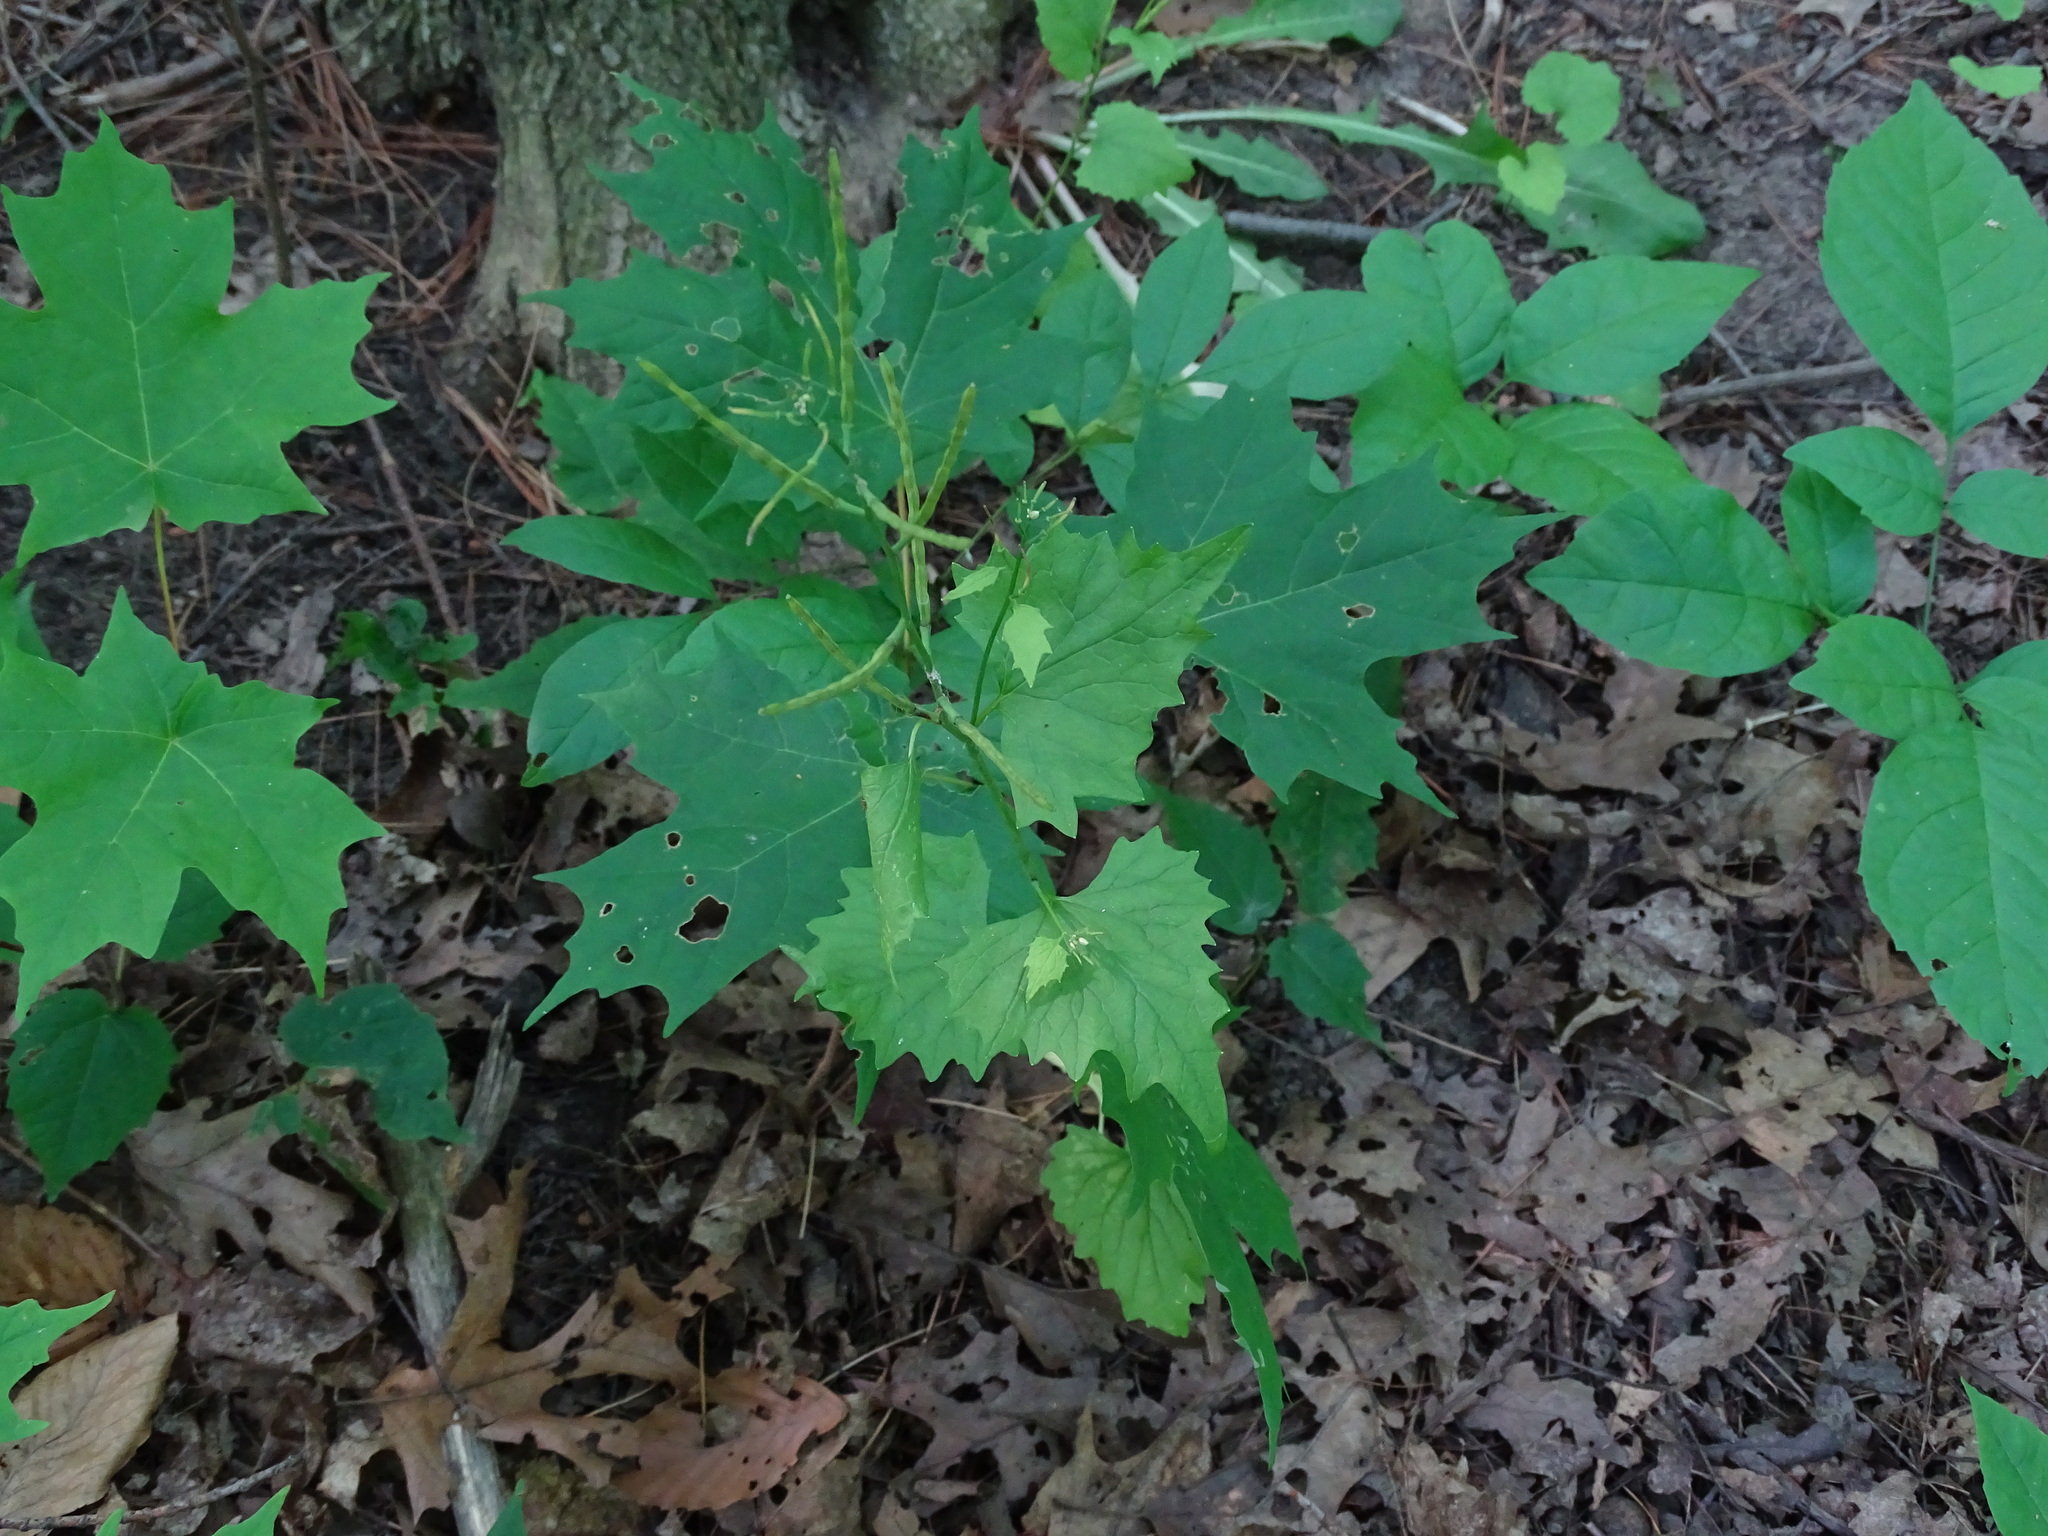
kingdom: Plantae
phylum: Tracheophyta
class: Magnoliopsida
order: Brassicales
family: Brassicaceae
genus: Alliaria
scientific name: Alliaria petiolata
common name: Garlic mustard
